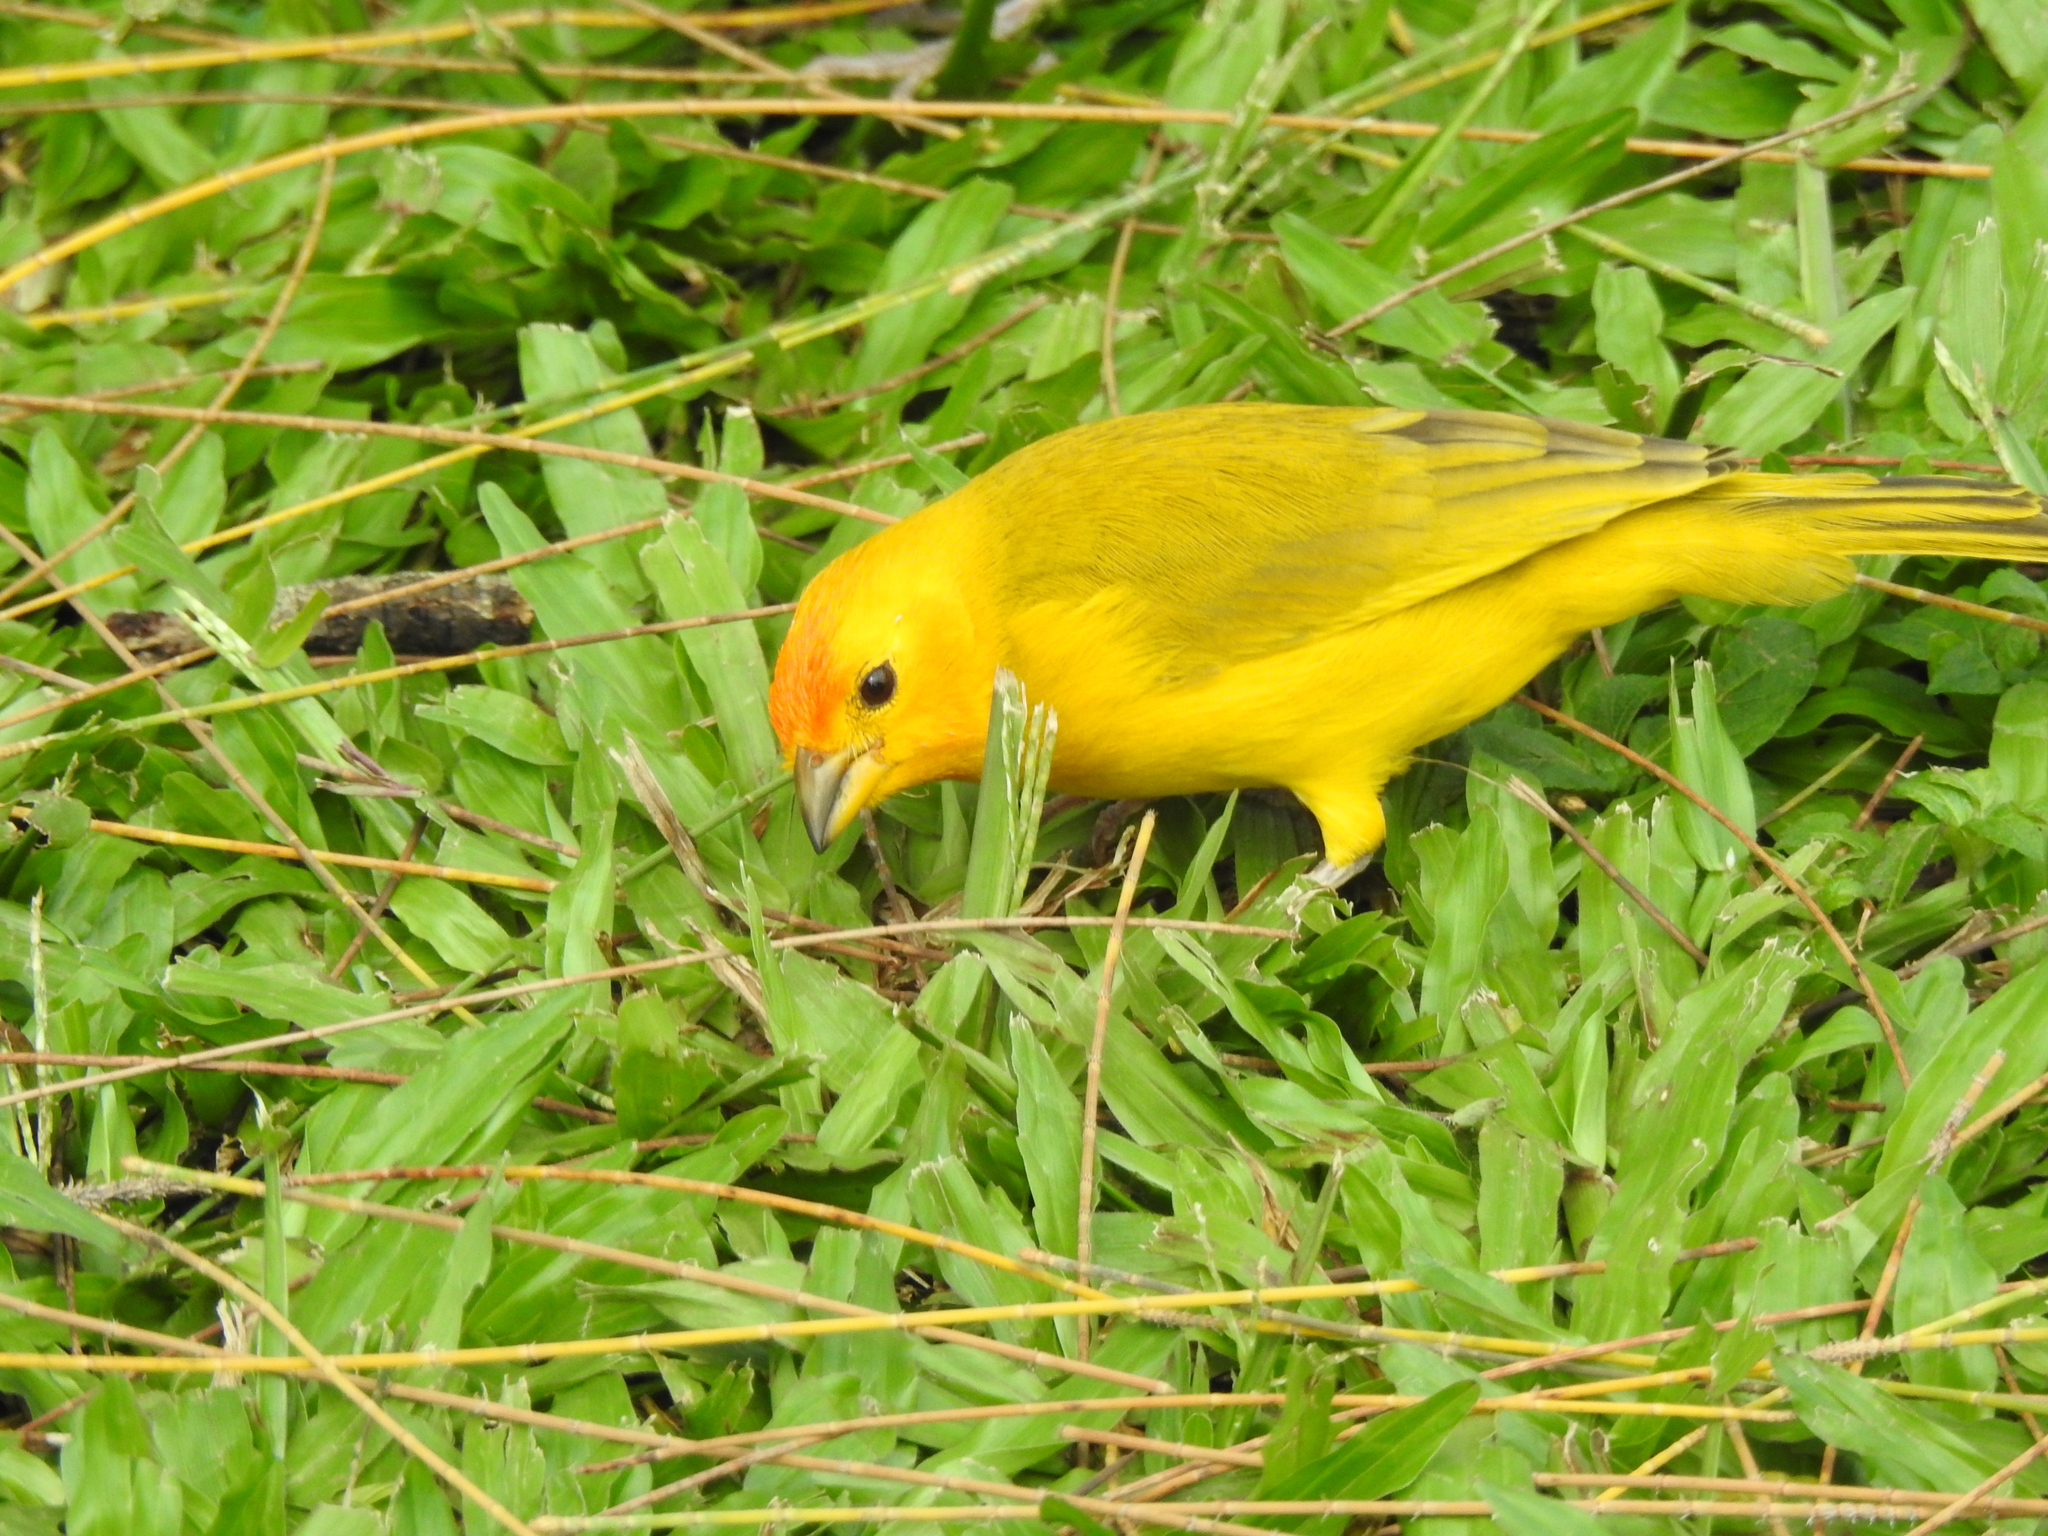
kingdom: Animalia
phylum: Chordata
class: Aves
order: Passeriformes
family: Thraupidae
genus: Sicalis
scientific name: Sicalis flaveola
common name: Saffron finch
